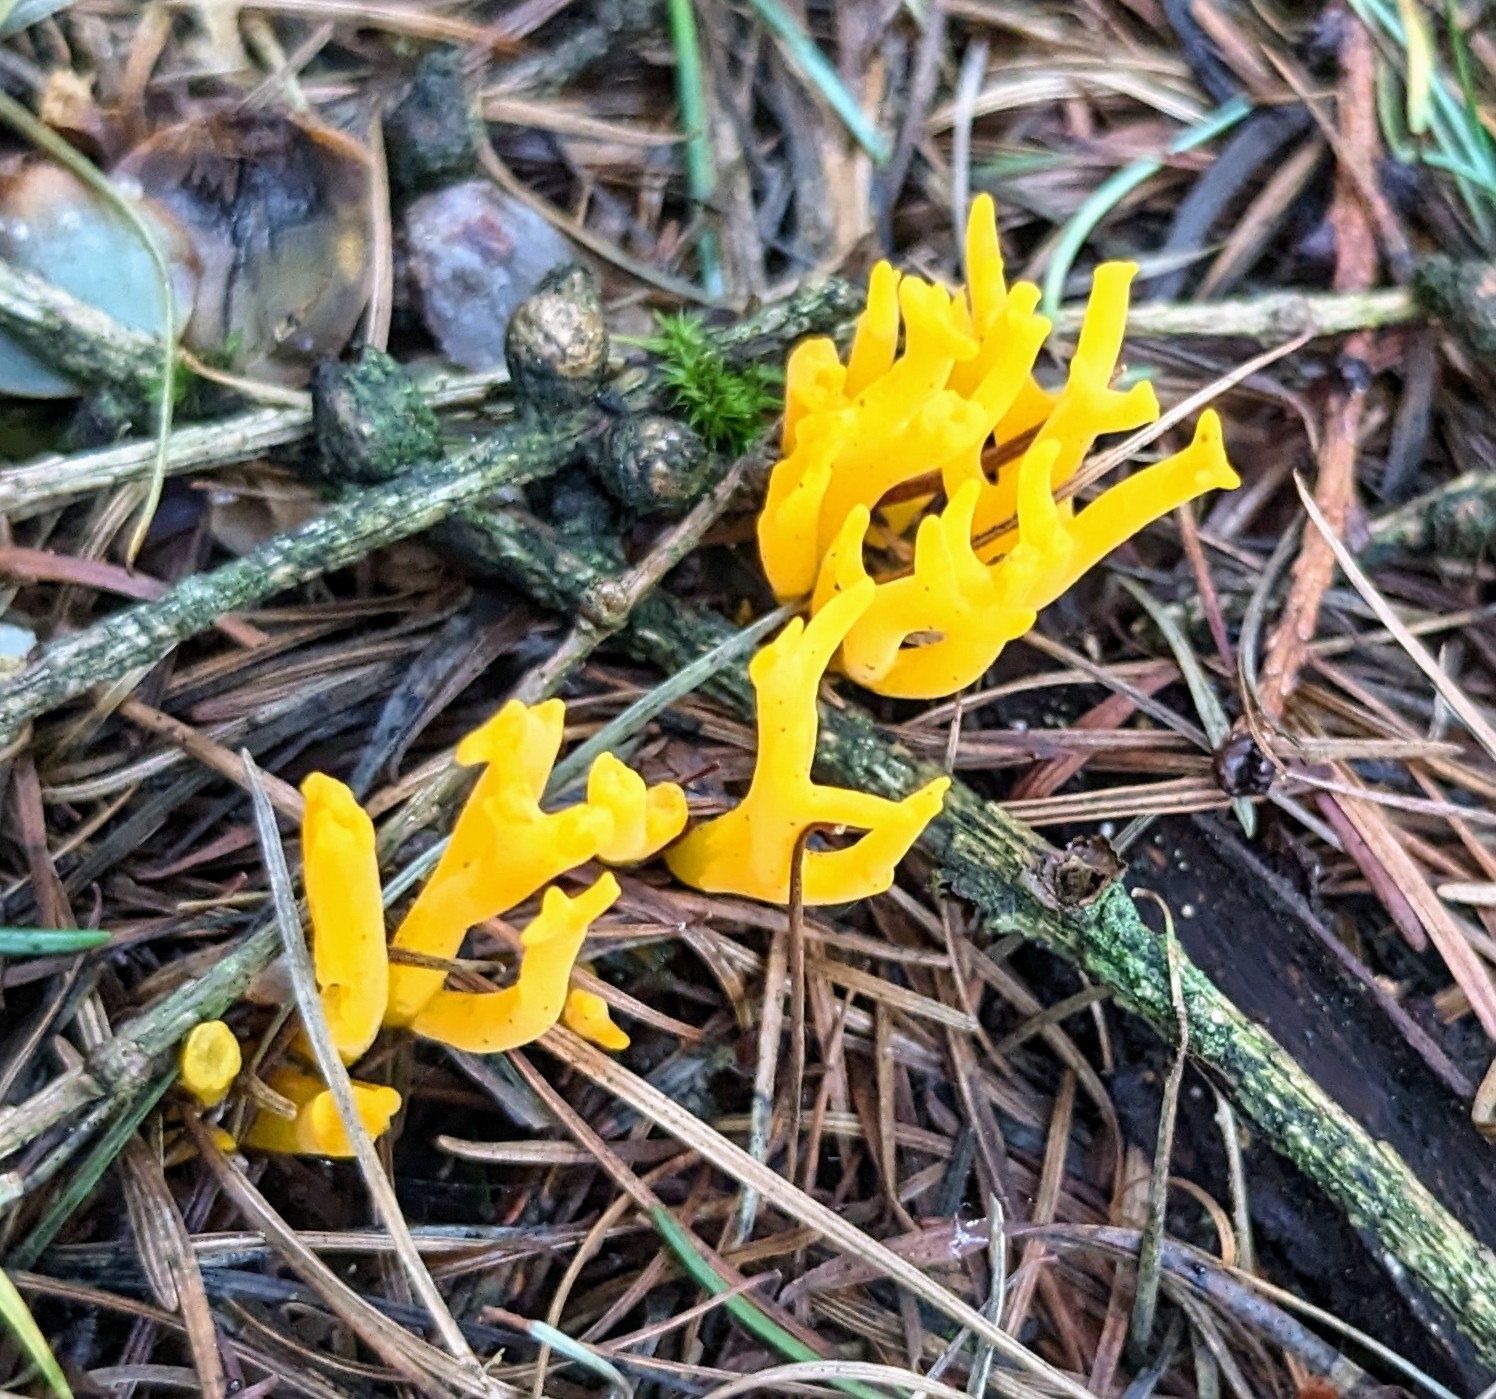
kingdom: Fungi
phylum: Basidiomycota
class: Dacrymycetes
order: Dacrymycetales
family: Dacrymycetaceae
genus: Calocera
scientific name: Calocera viscosa
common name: Yellow stagshorn
